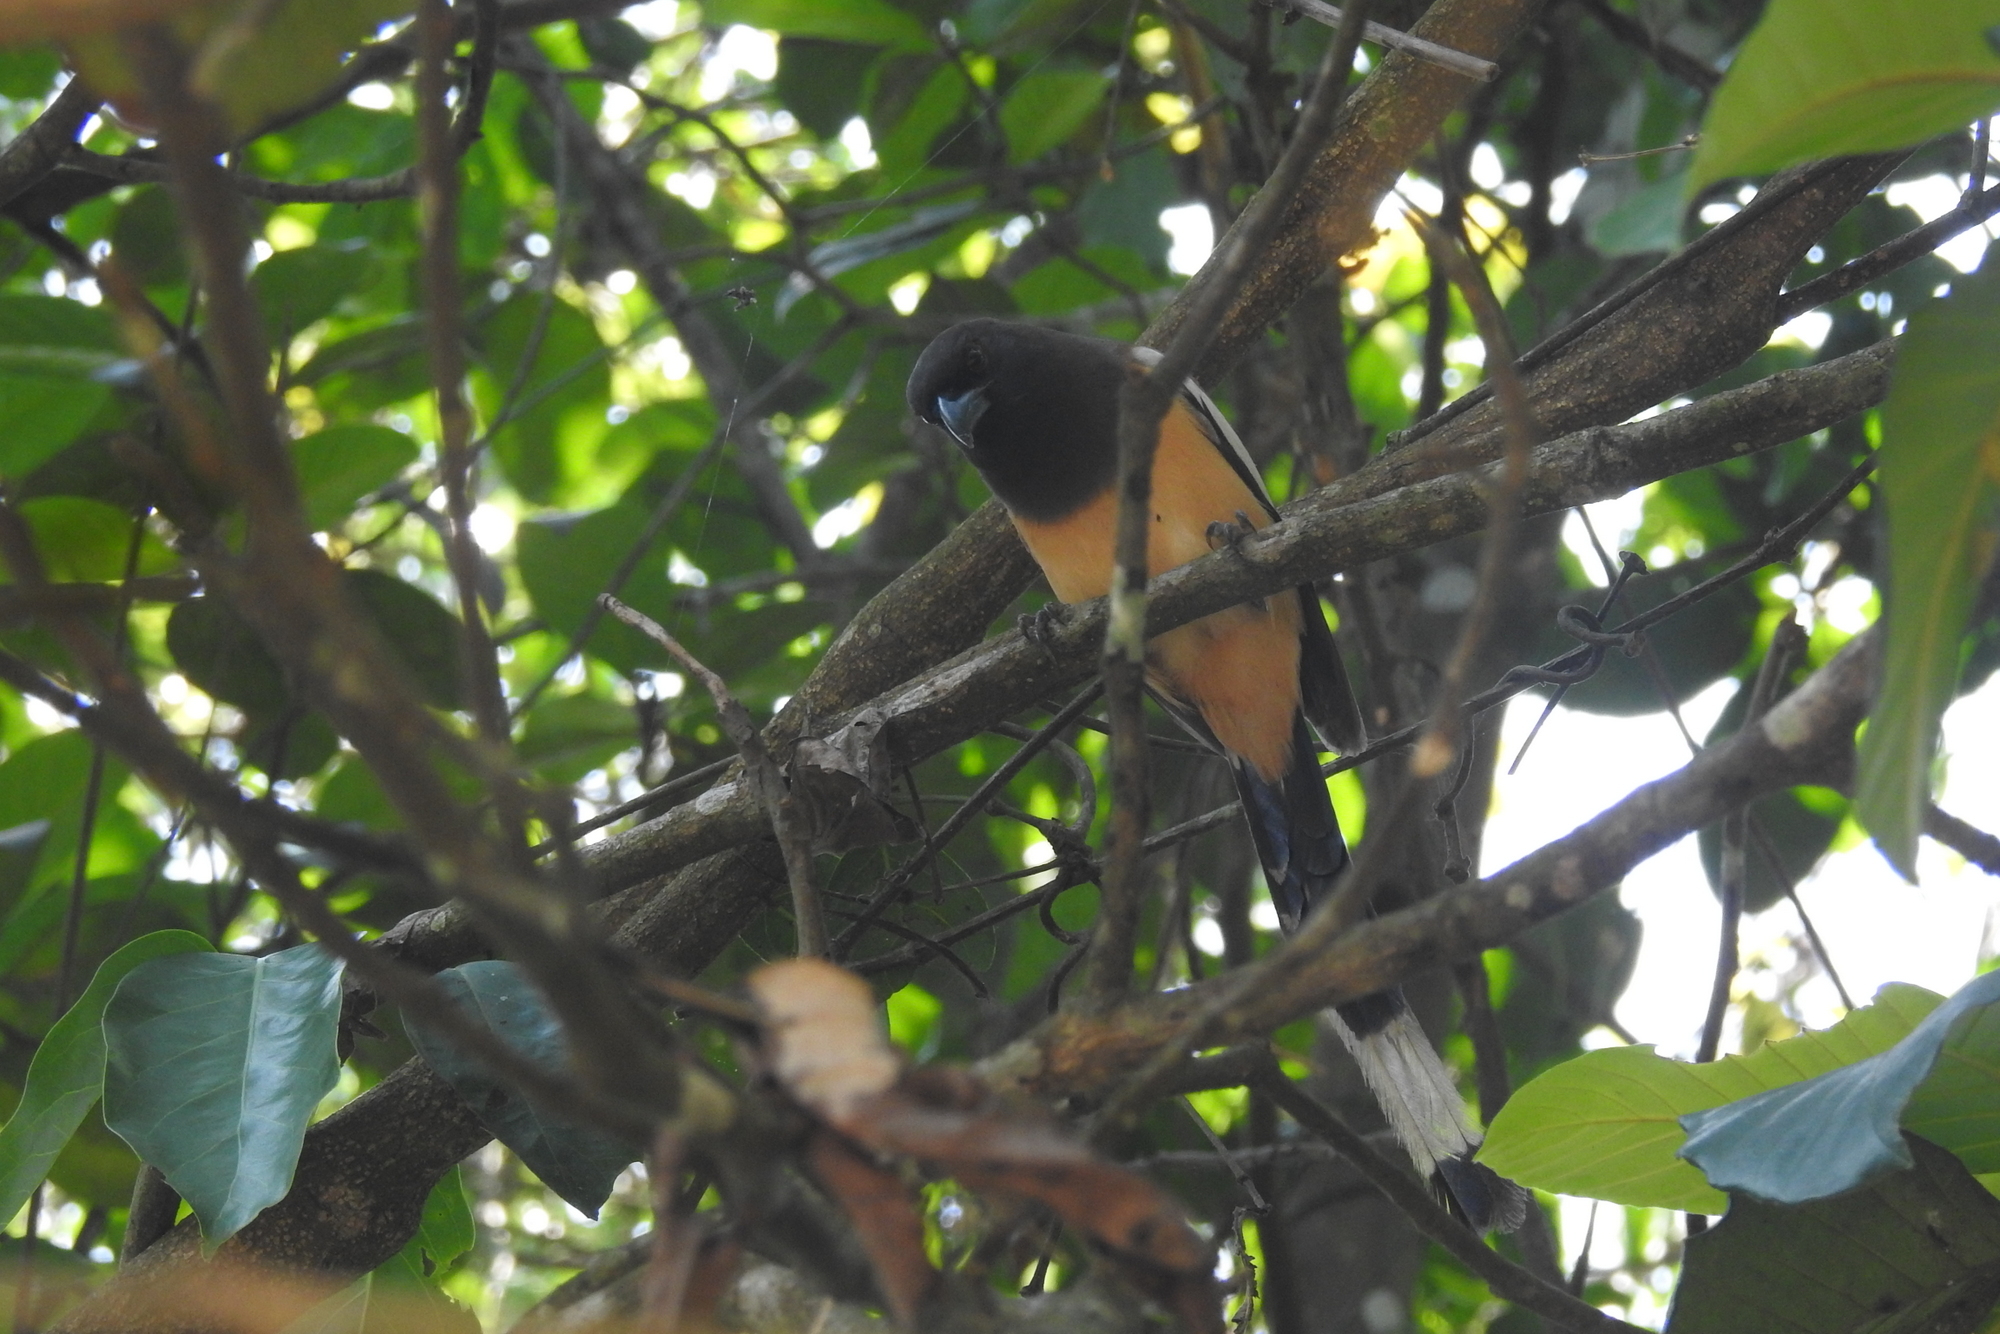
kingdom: Animalia
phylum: Chordata
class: Aves
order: Passeriformes
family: Corvidae
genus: Dendrocitta
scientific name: Dendrocitta vagabunda
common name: Rufous treepie
